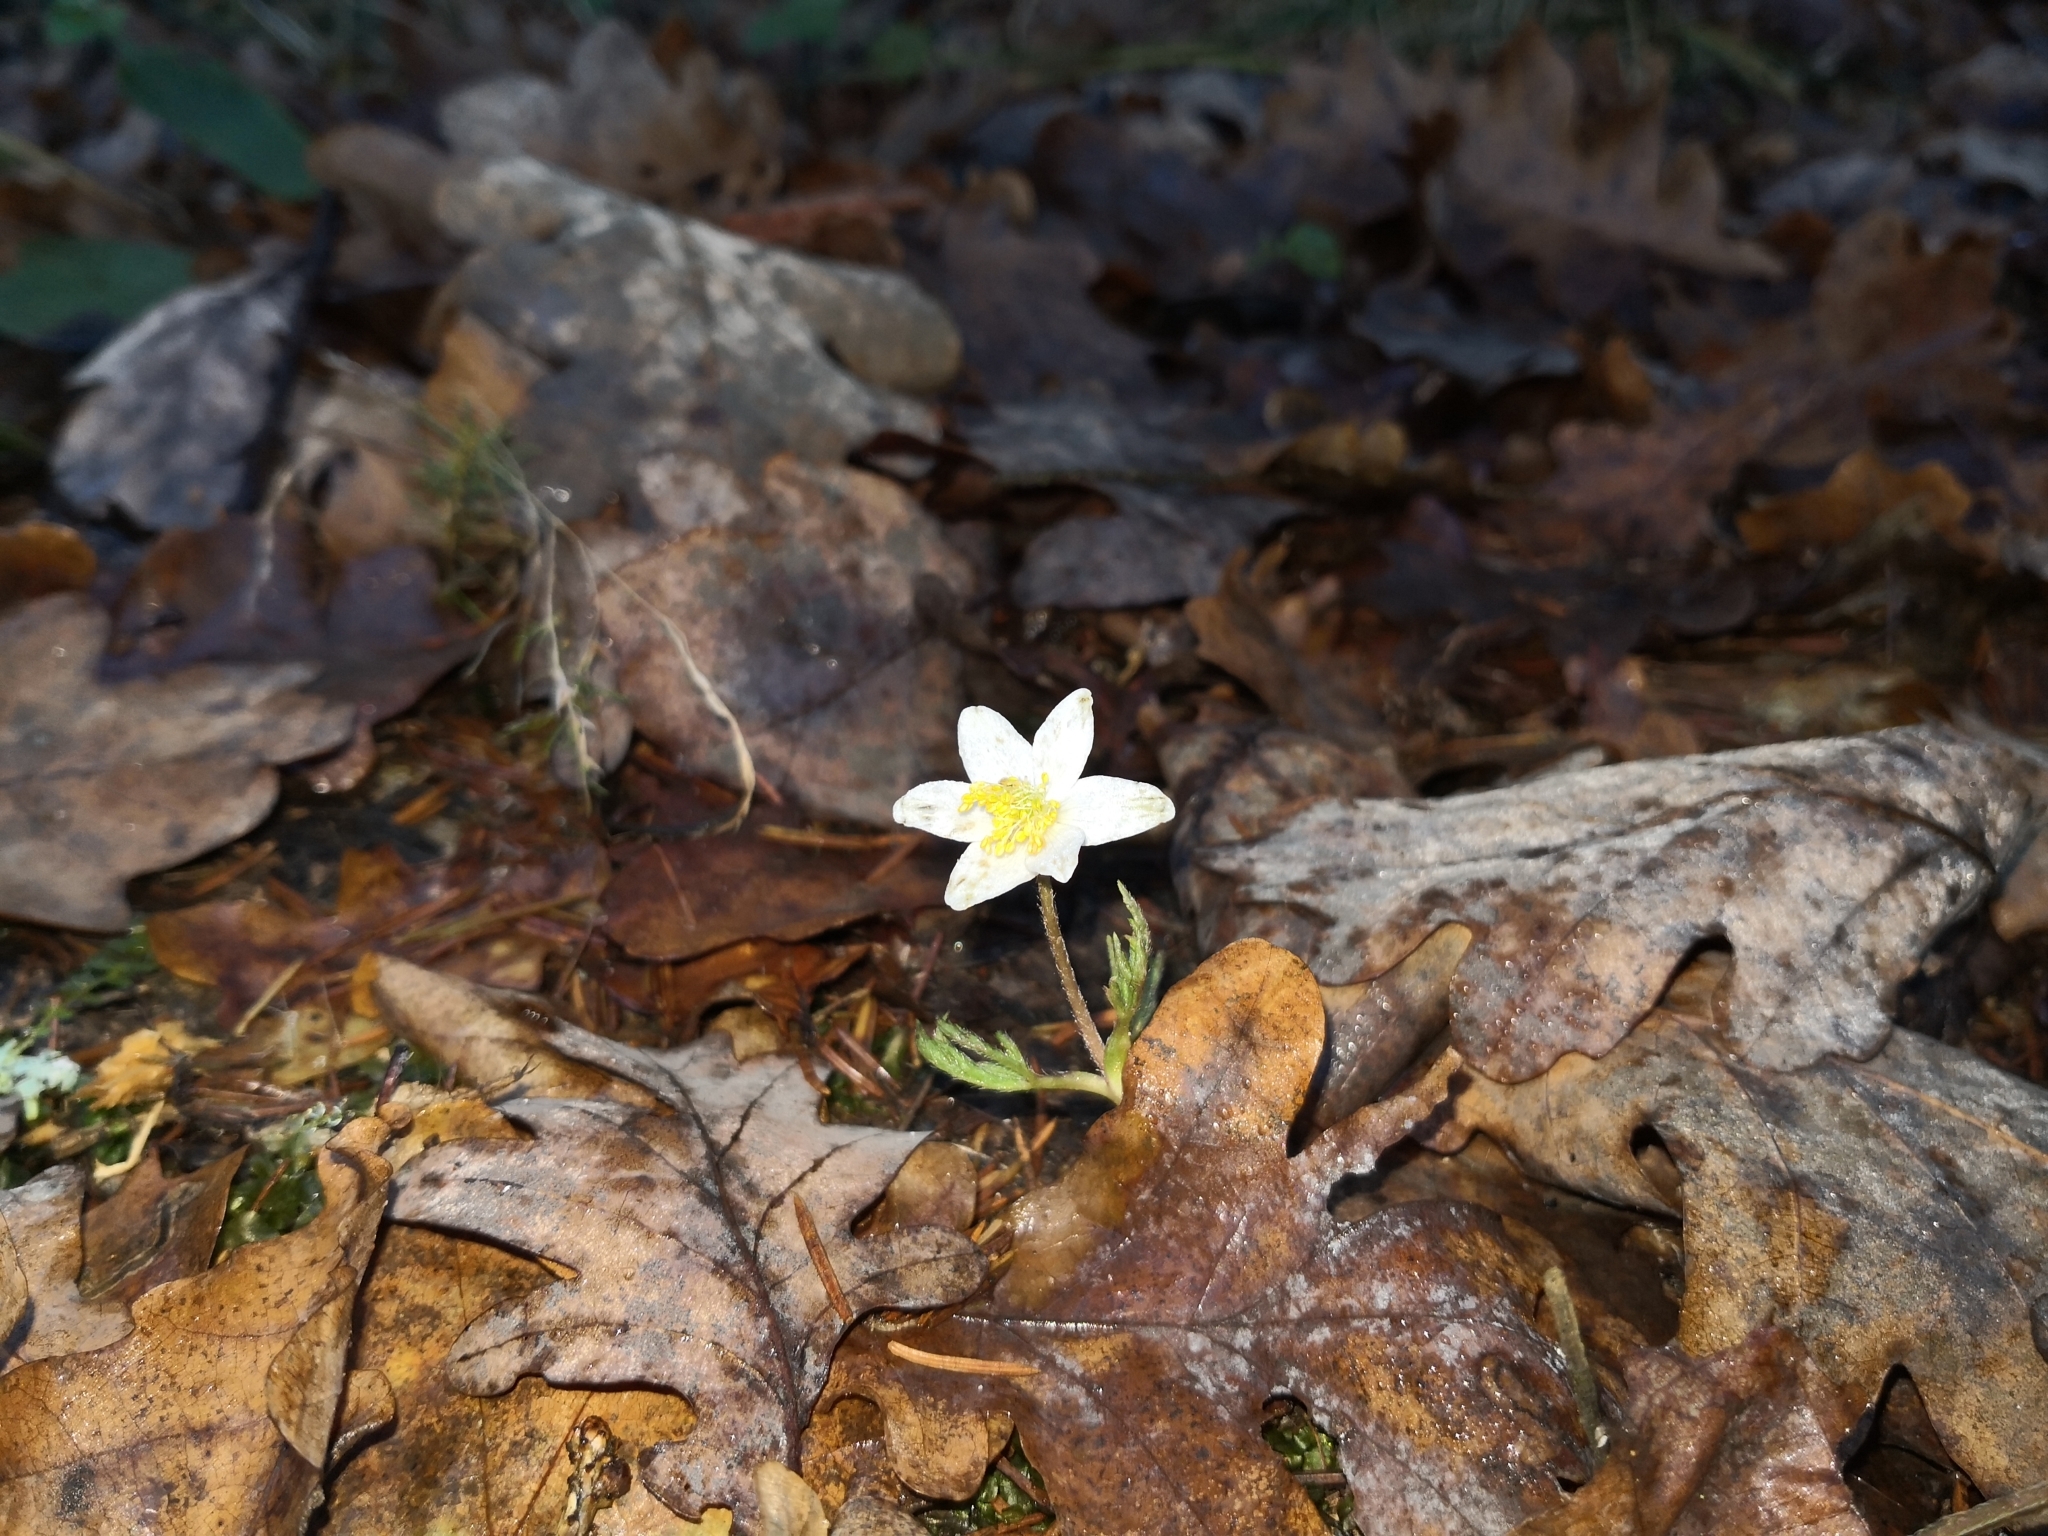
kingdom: Plantae
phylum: Tracheophyta
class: Magnoliopsida
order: Ranunculales
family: Ranunculaceae
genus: Anemone
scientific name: Anemone nemorosa
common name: Wood anemone
